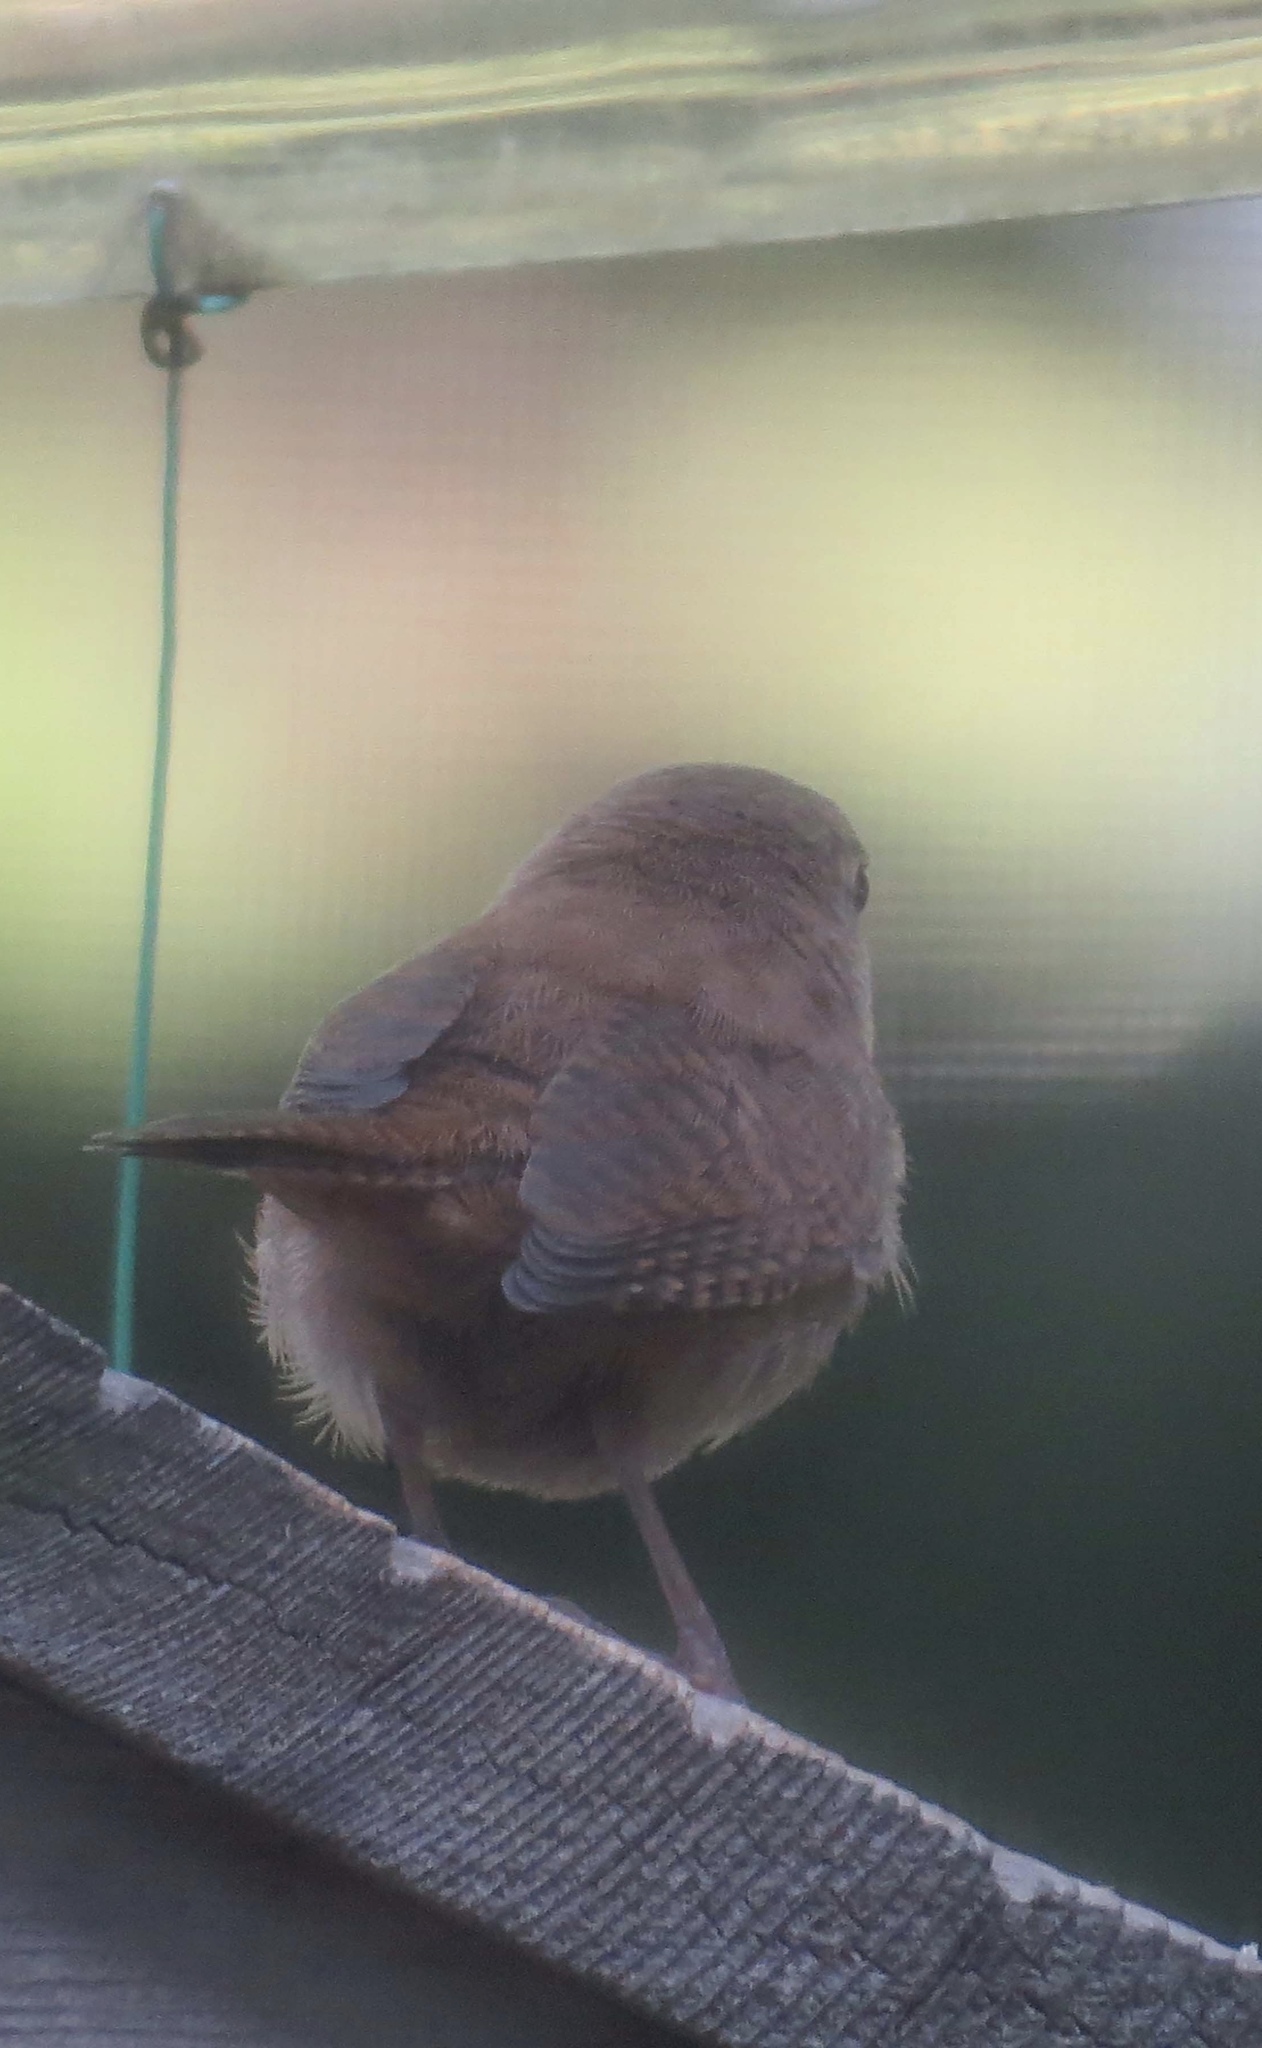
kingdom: Animalia
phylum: Chordata
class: Aves
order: Passeriformes
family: Troglodytidae
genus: Troglodytes
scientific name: Troglodytes aedon
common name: House wren
